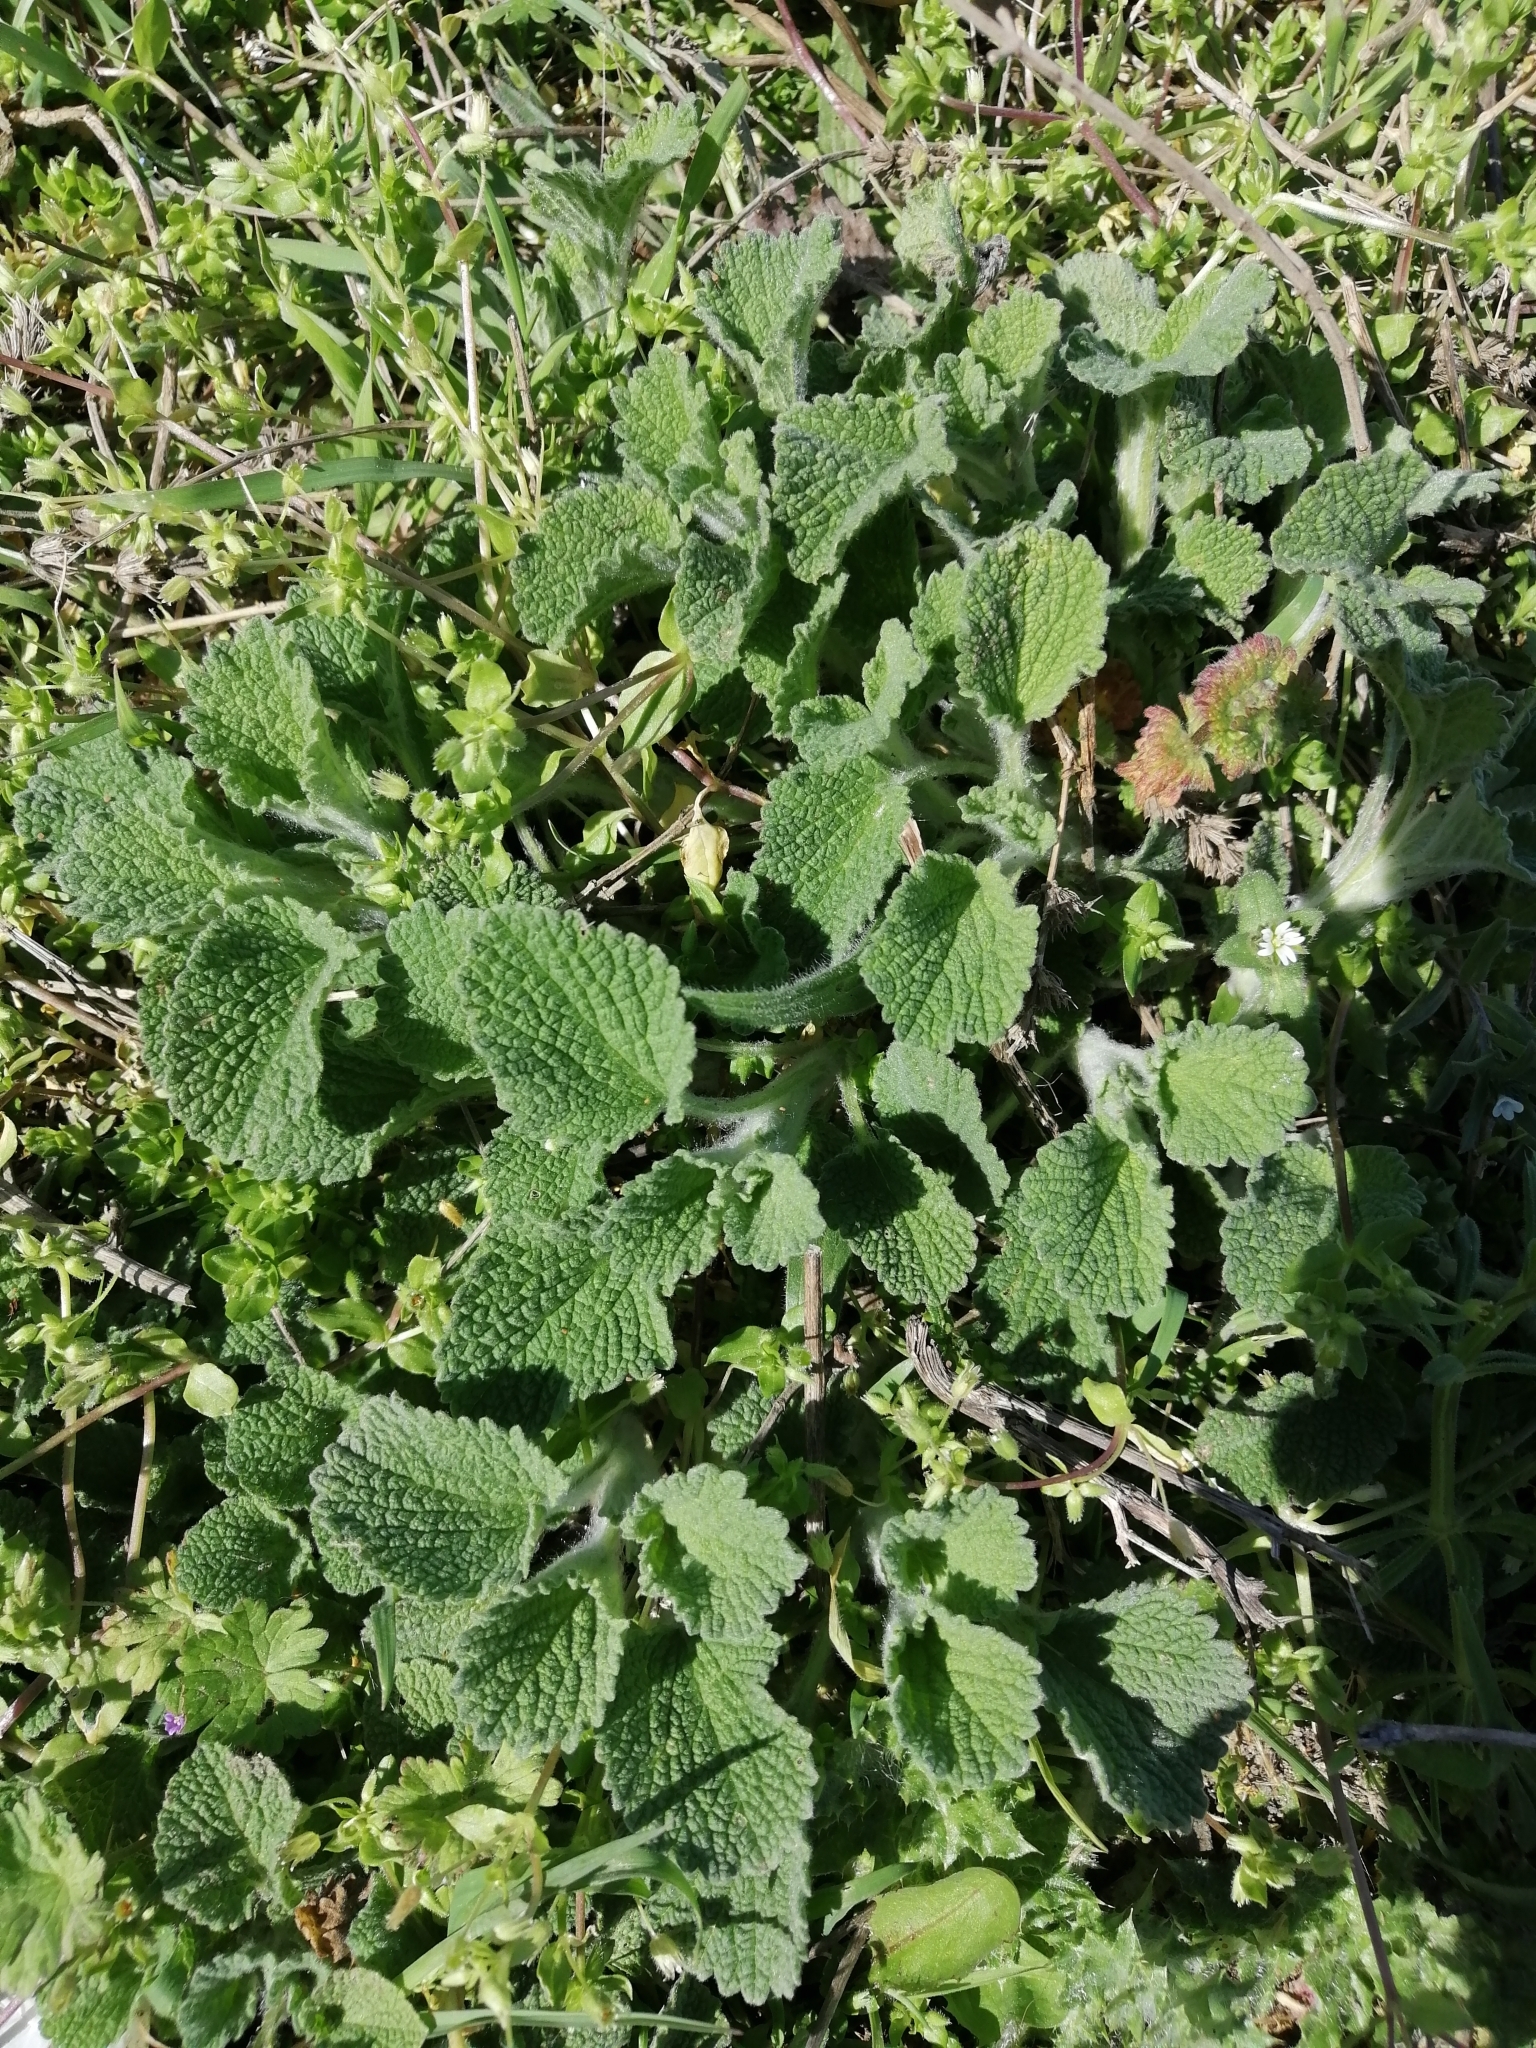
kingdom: Plantae
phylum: Tracheophyta
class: Magnoliopsida
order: Lamiales
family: Lamiaceae
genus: Marrubium
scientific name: Marrubium peregrinum
